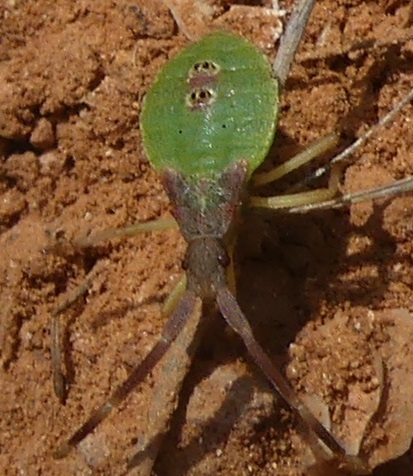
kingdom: Animalia
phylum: Arthropoda
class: Insecta
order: Hemiptera
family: Coreidae
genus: Gonocerus
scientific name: Gonocerus acuteangulatus
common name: Box bug
